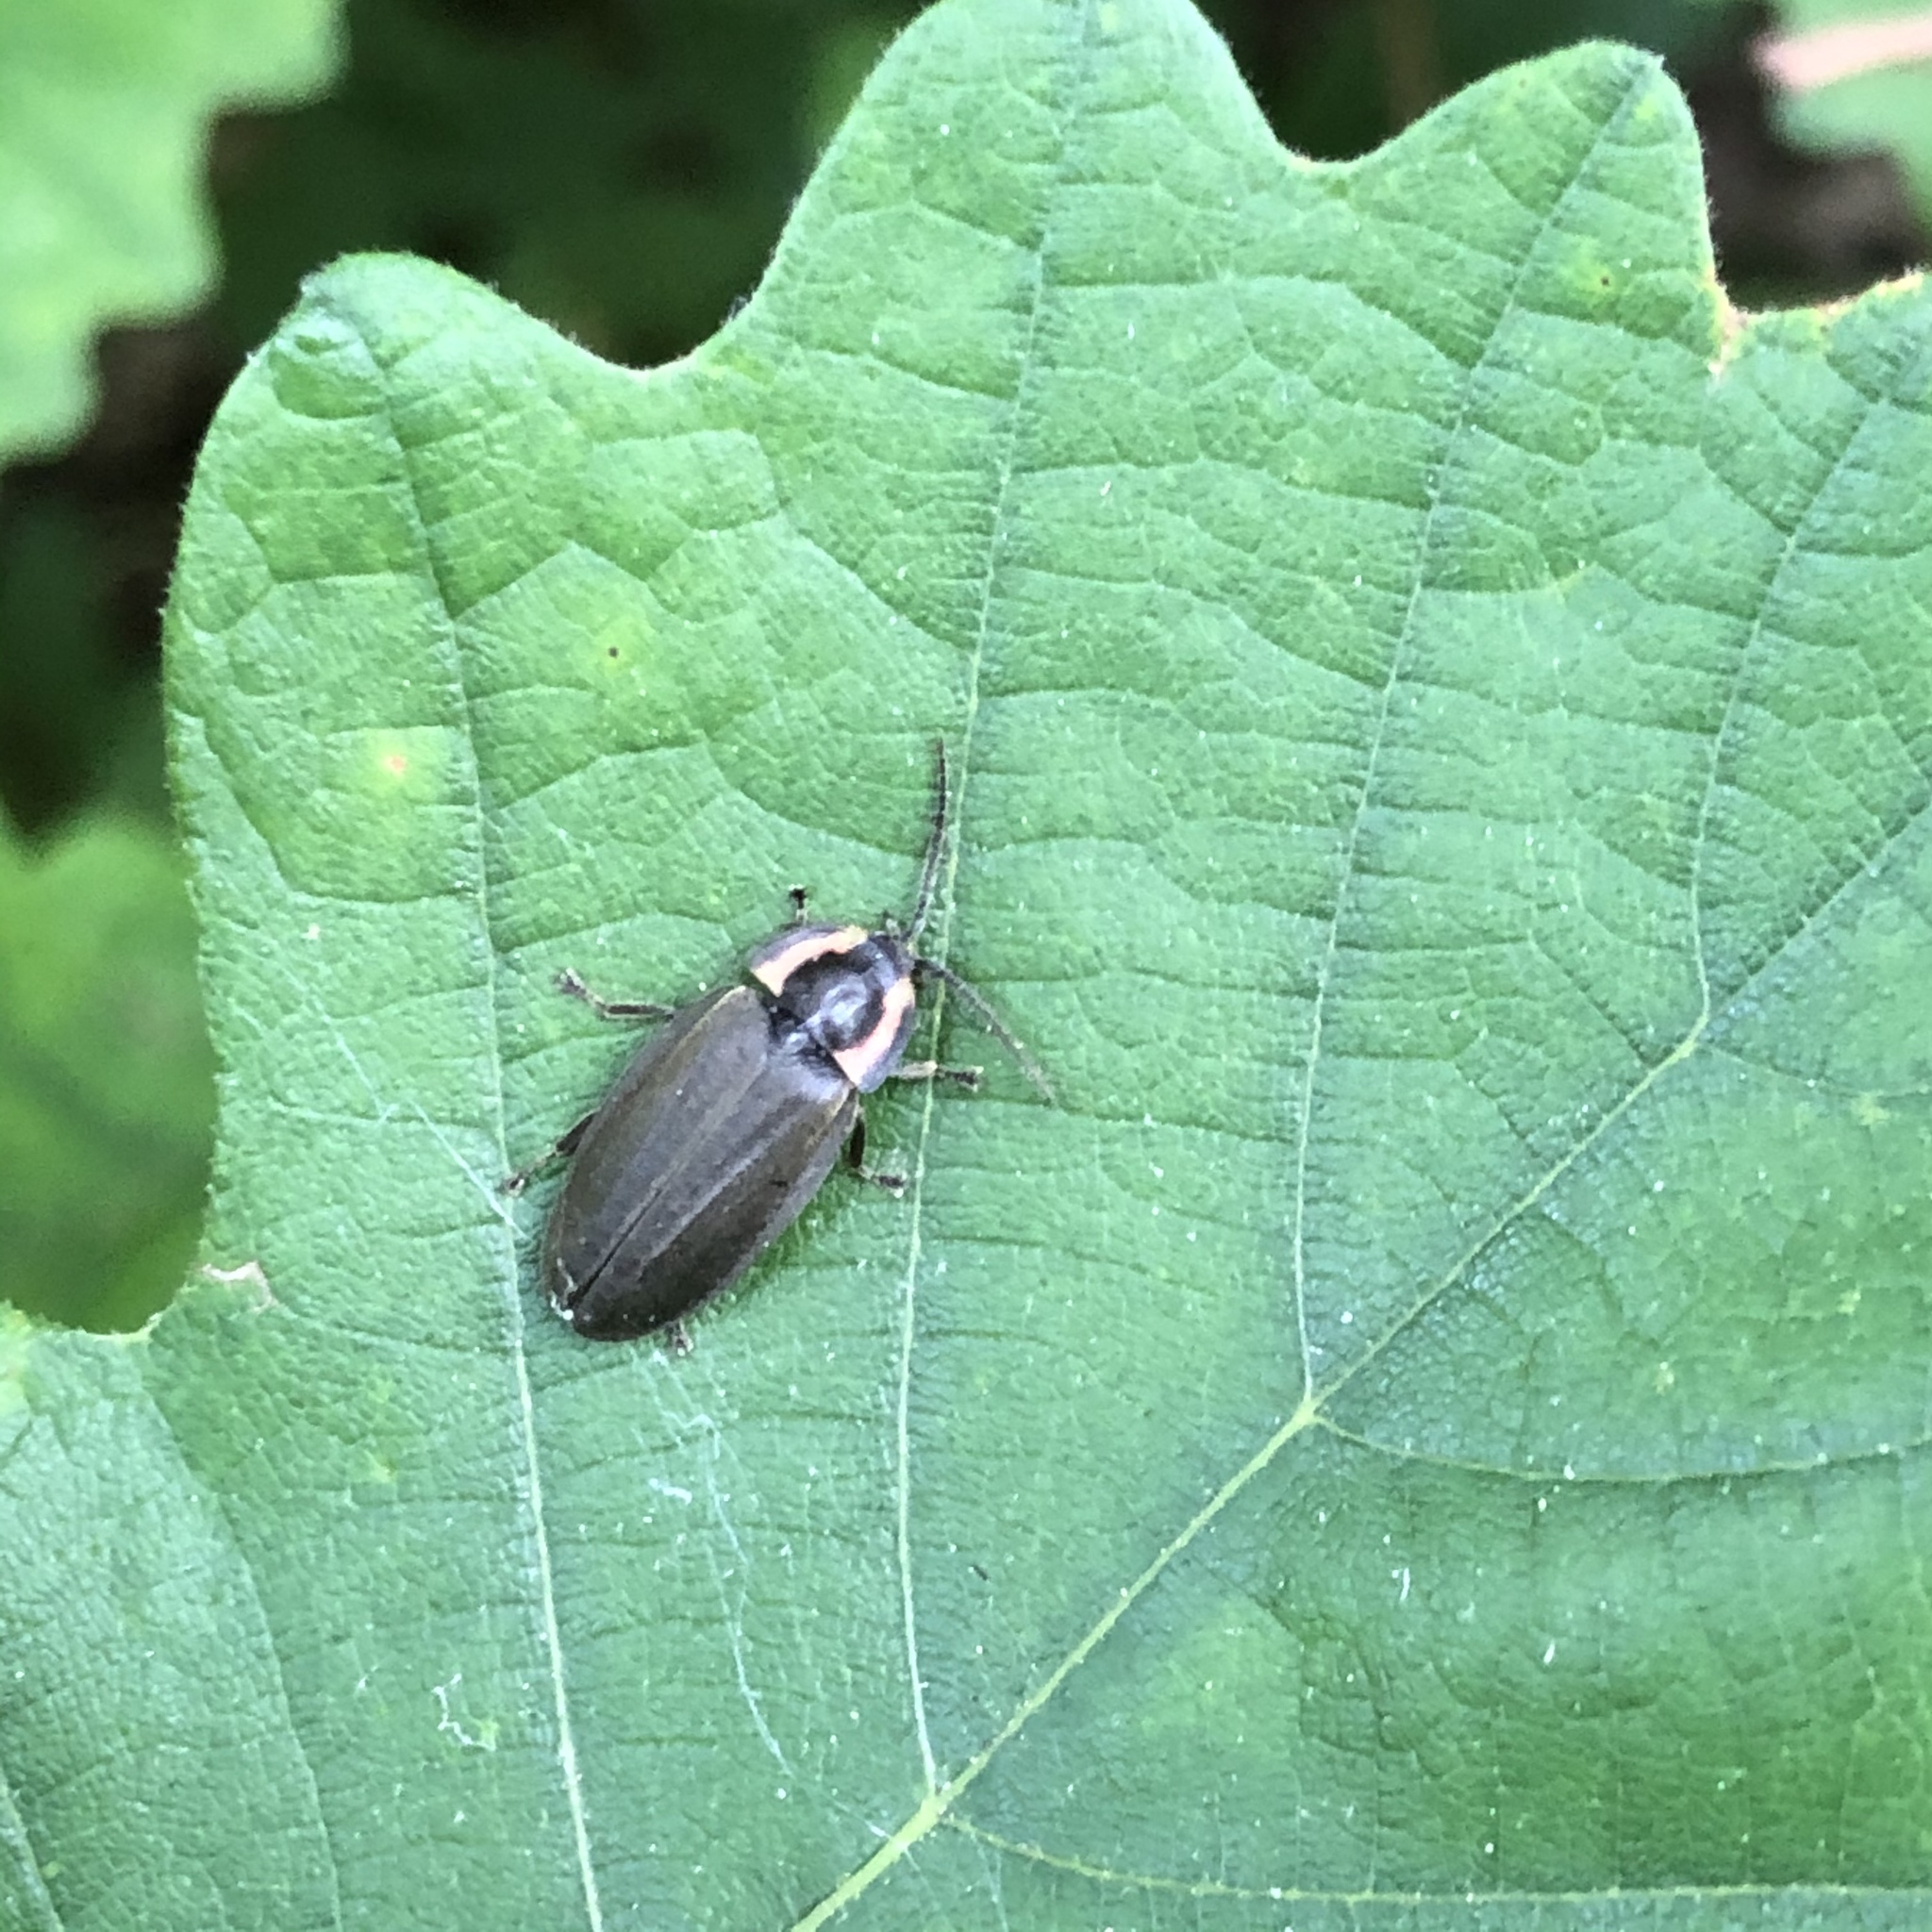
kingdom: Animalia
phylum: Arthropoda
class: Insecta
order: Coleoptera
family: Lampyridae
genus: Photinus
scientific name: Photinus corrusca
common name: Winter firefly
